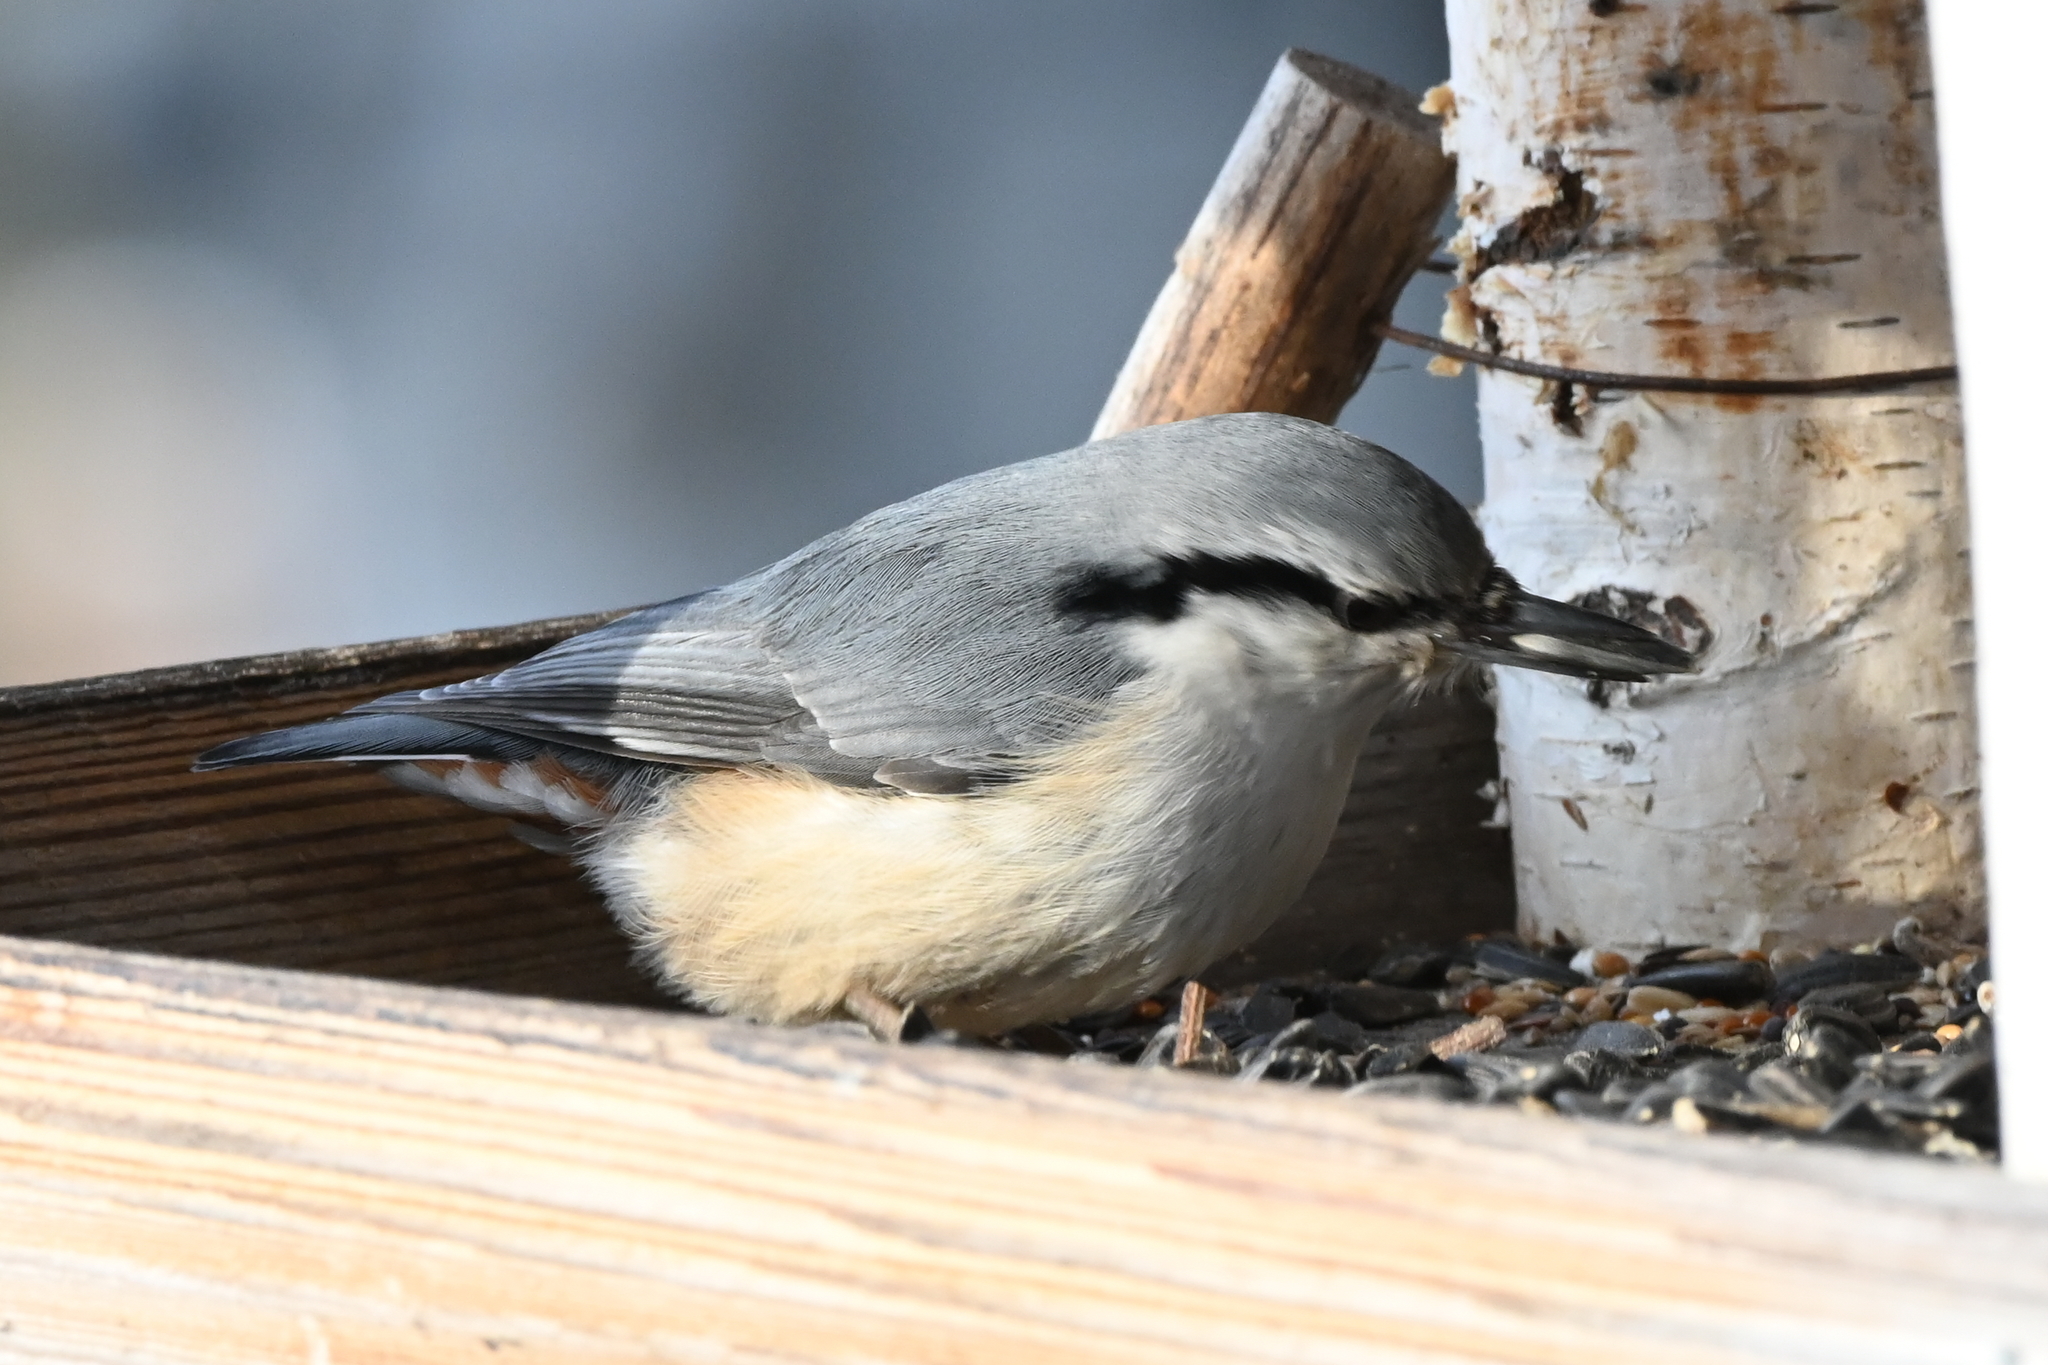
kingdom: Animalia
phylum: Chordata
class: Aves
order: Passeriformes
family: Sittidae
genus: Sitta
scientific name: Sitta europaea
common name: Eurasian nuthatch
